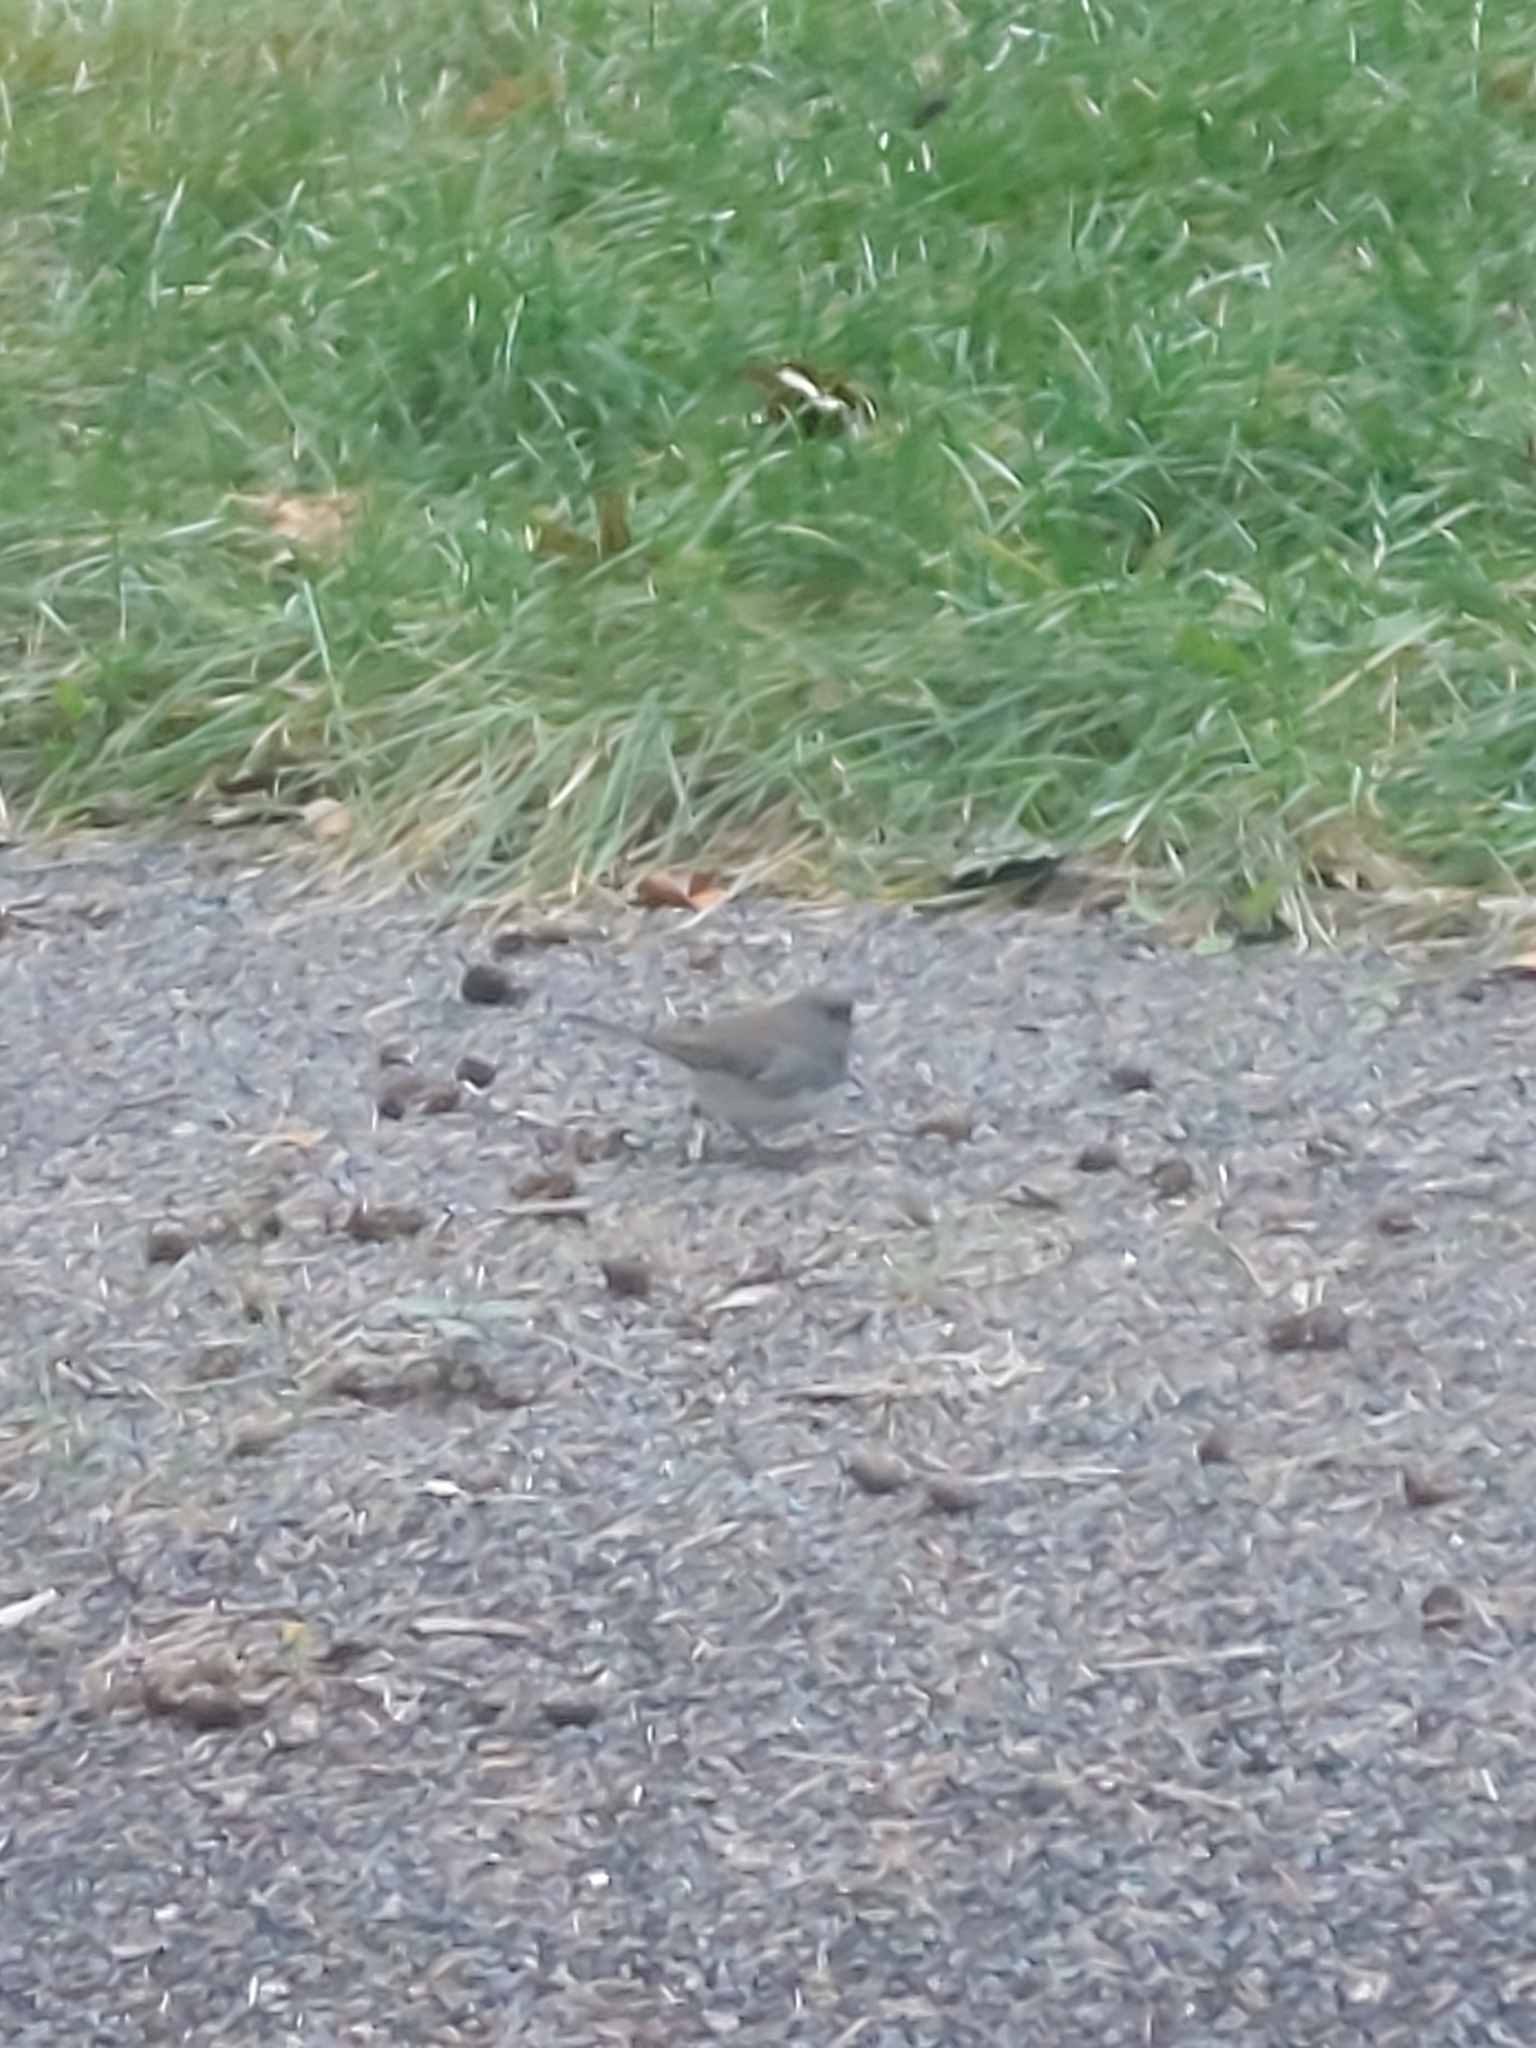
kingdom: Animalia
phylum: Chordata
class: Aves
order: Passeriformes
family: Passerellidae
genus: Junco
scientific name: Junco hyemalis
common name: Dark-eyed junco
